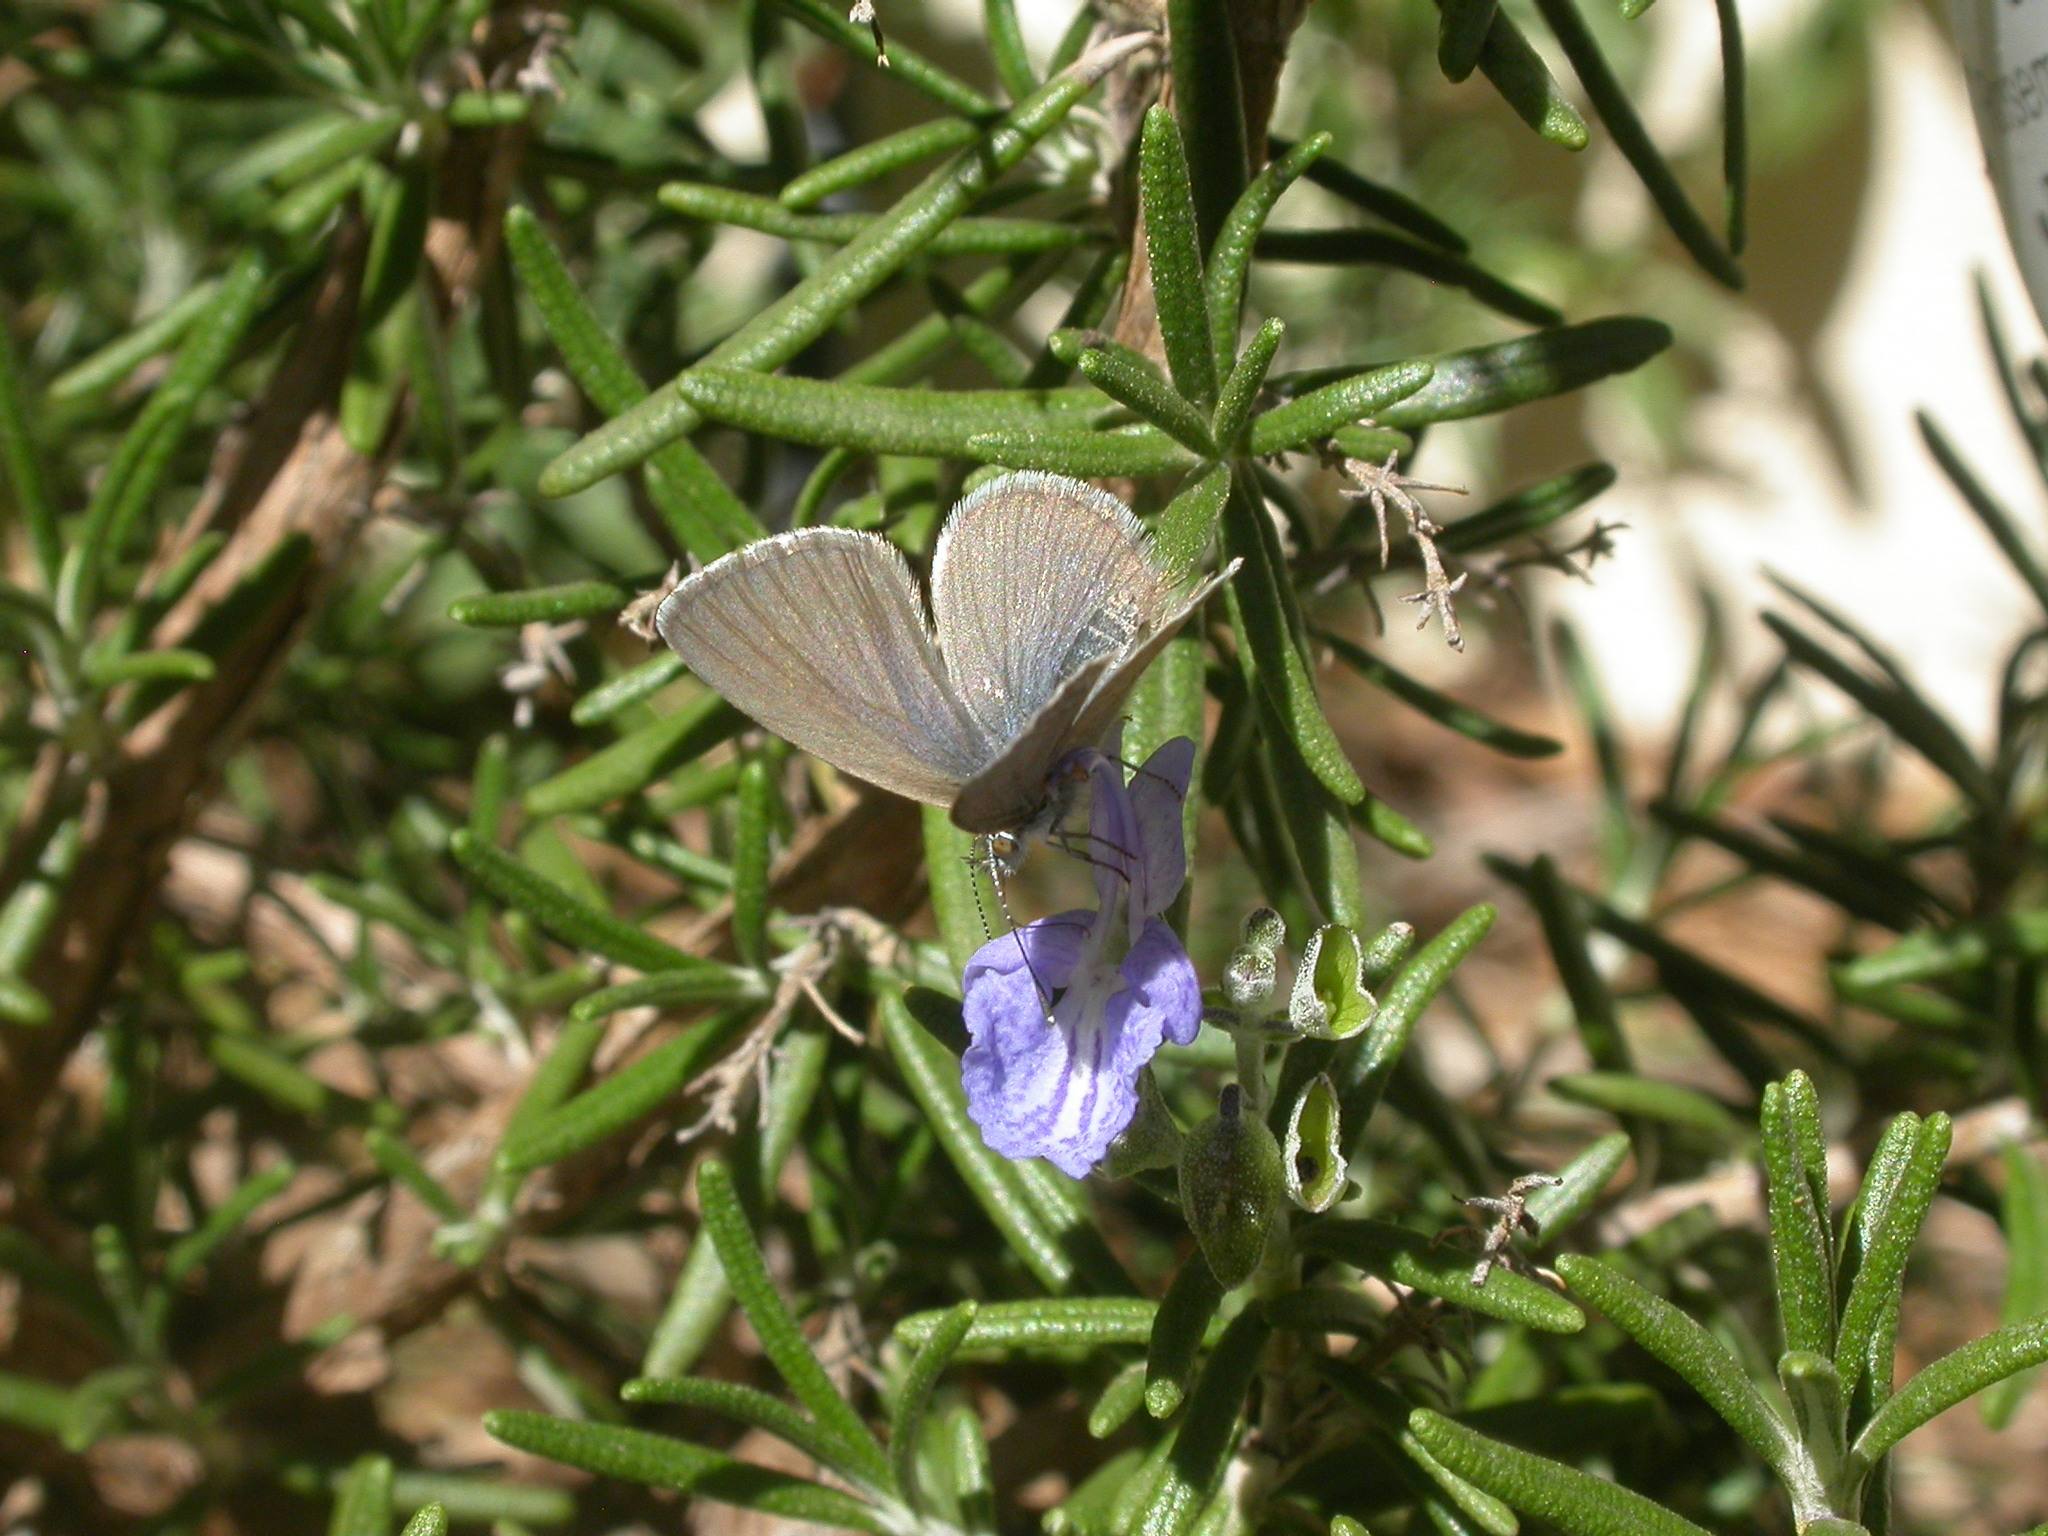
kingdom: Animalia
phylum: Arthropoda
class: Insecta
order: Lepidoptera
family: Lycaenidae
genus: Zizina
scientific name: Zizina labradus
